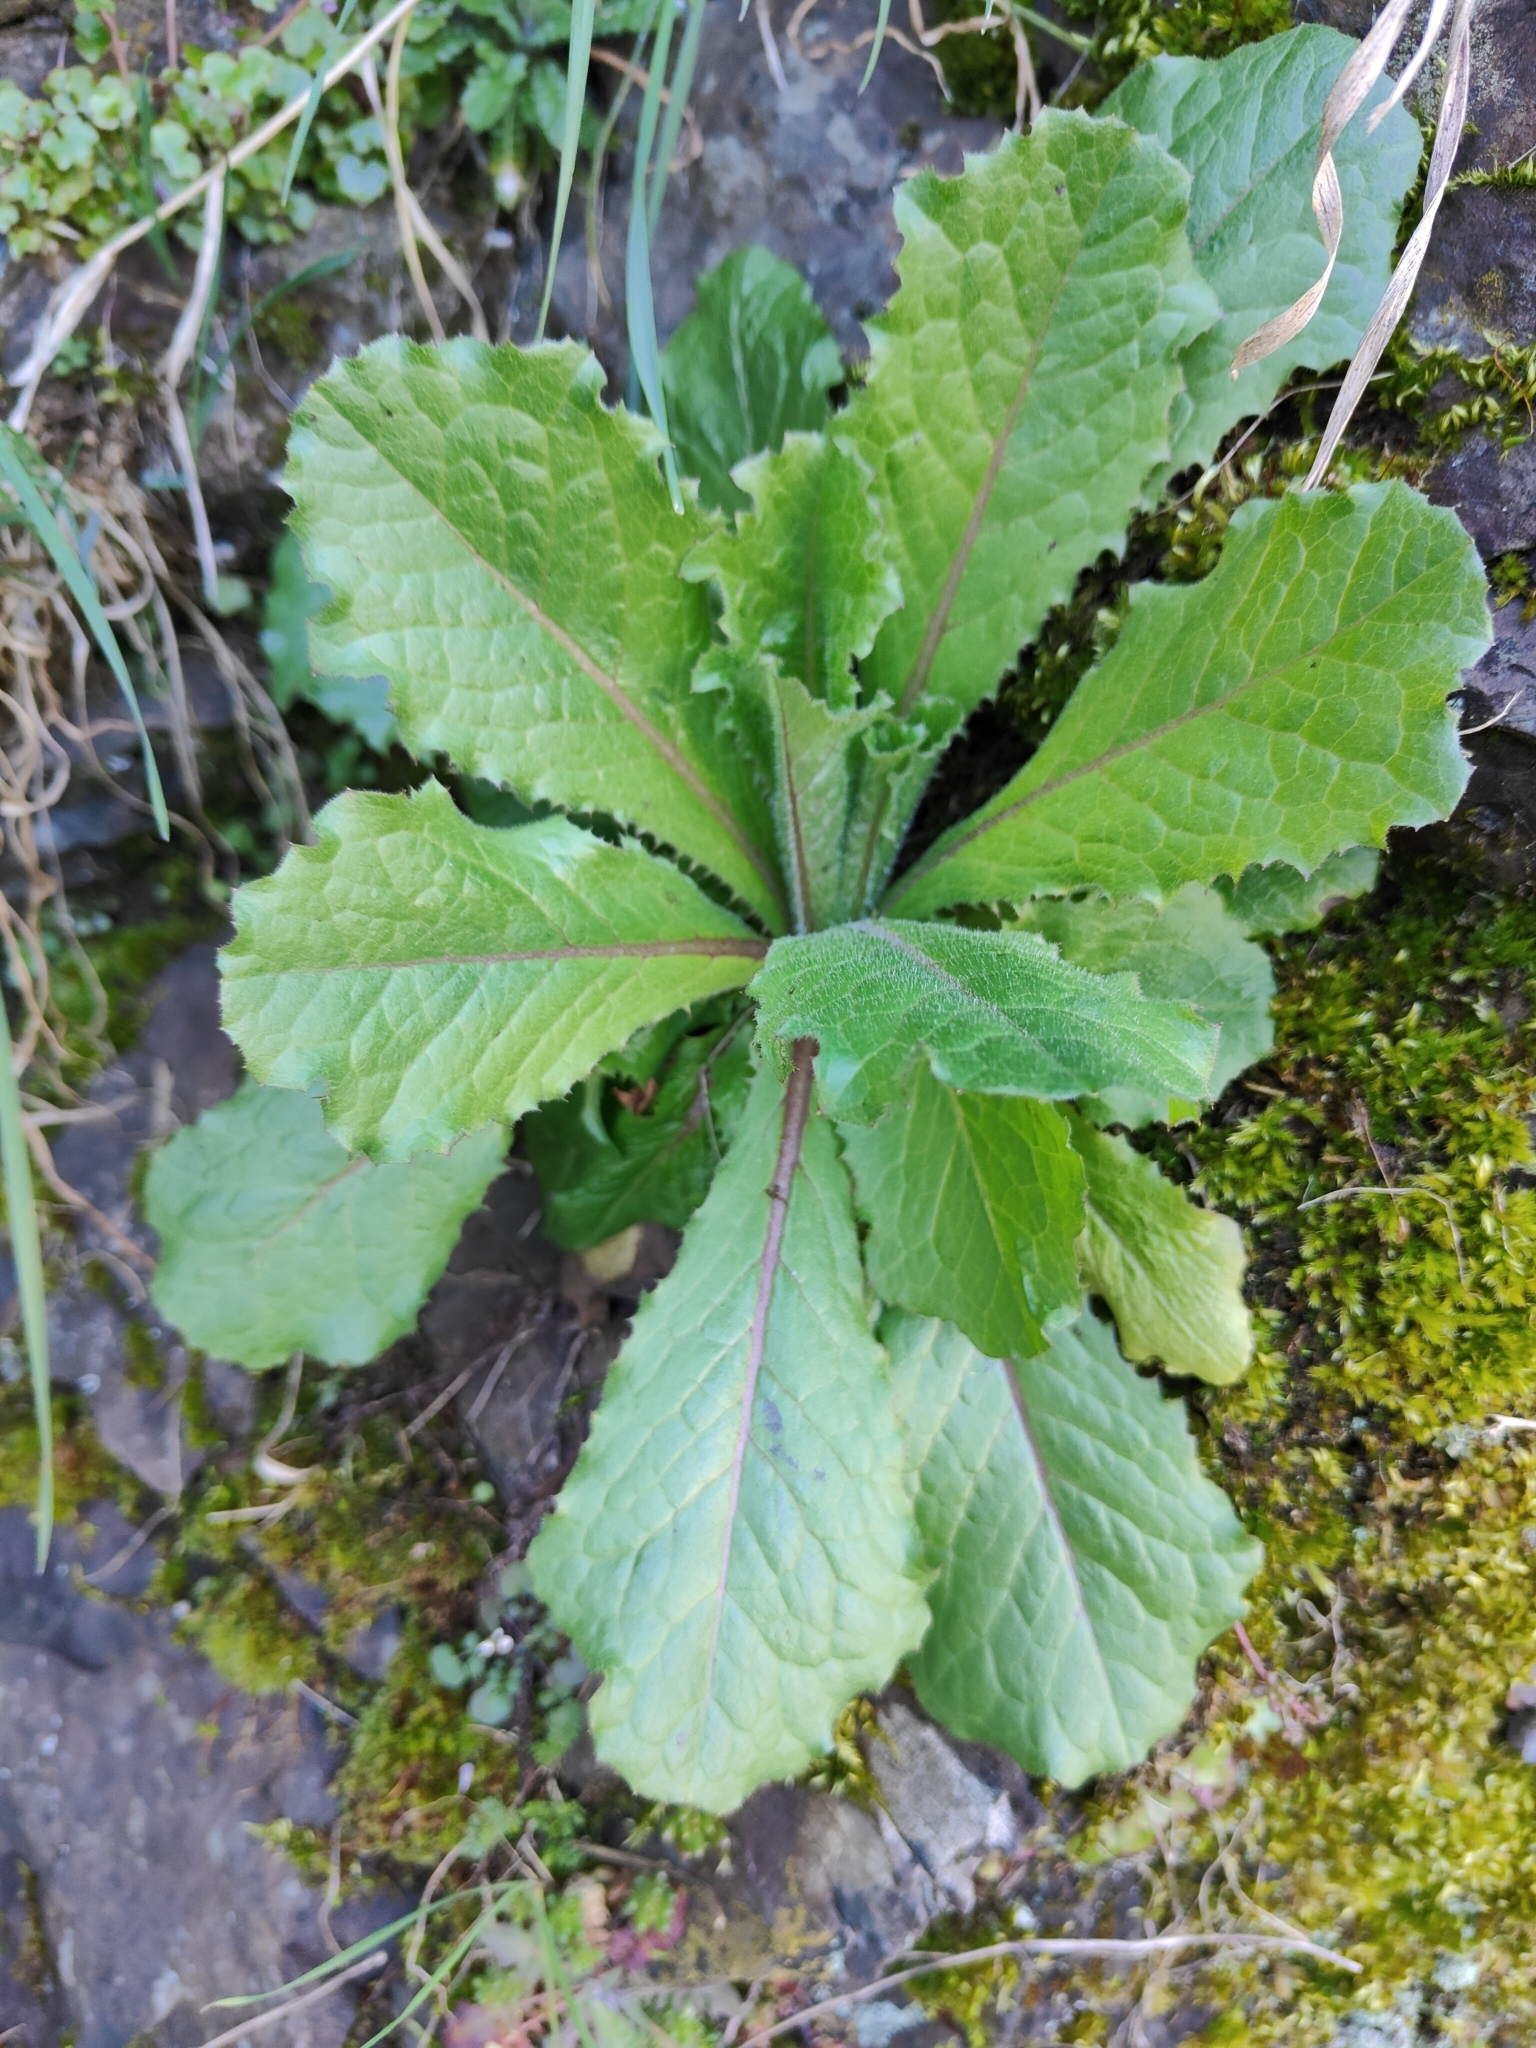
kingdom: Plantae
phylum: Tracheophyta
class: Magnoliopsida
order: Asterales
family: Asteraceae
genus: Lactuca
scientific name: Lactuca virosa
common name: Great lettuce
